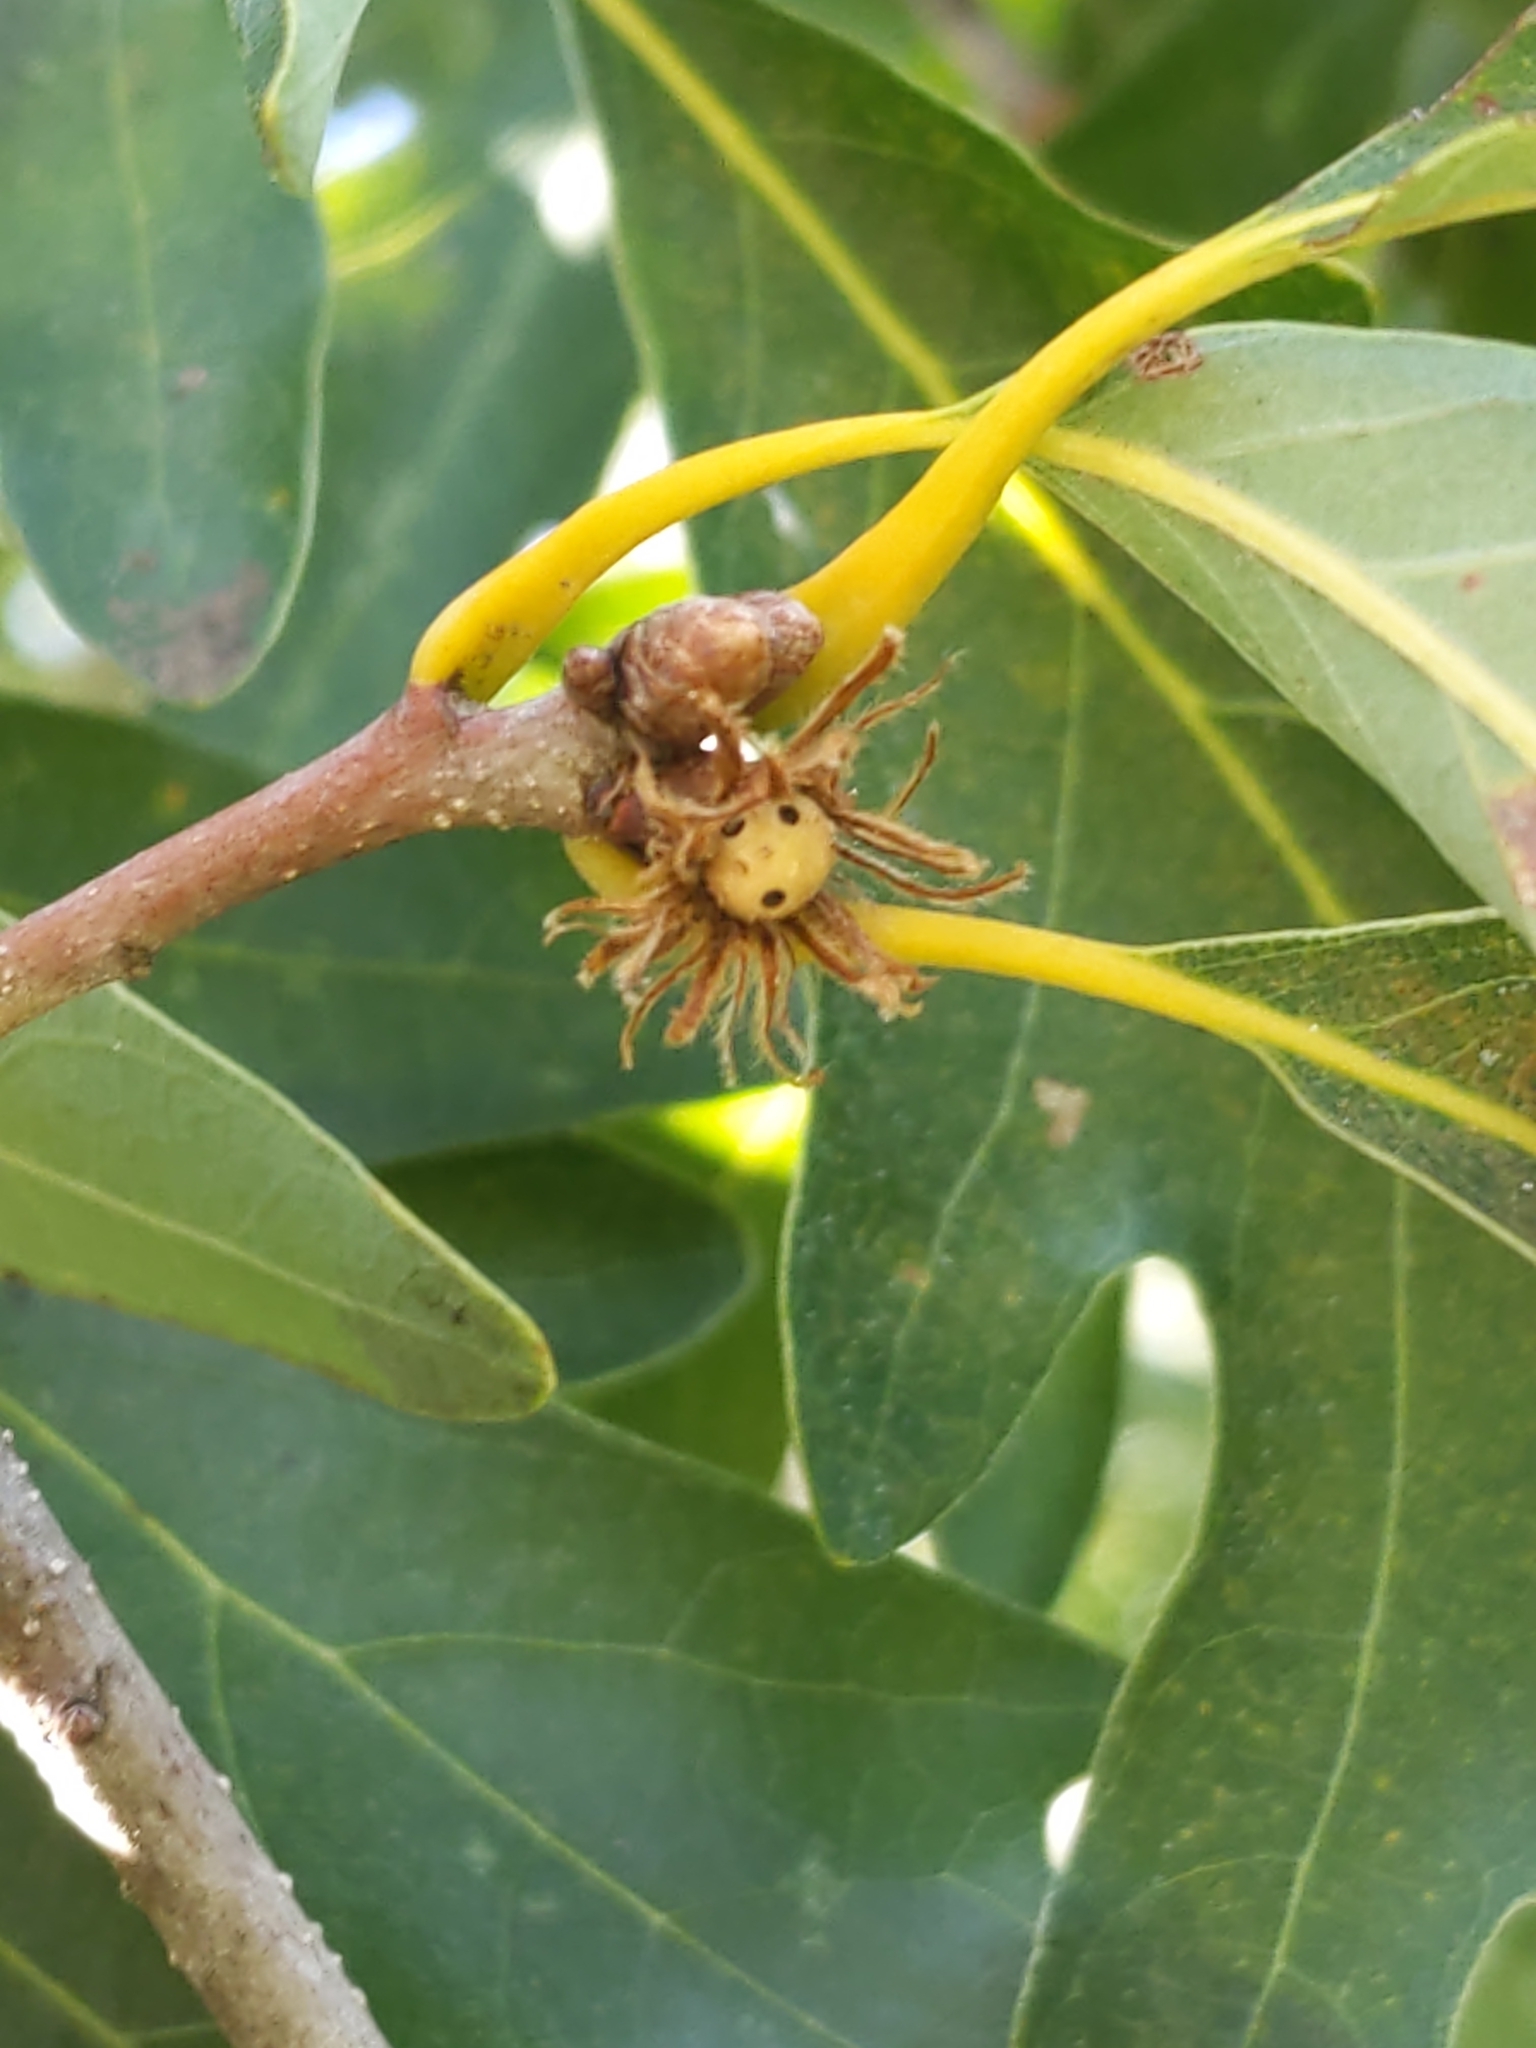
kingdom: Animalia
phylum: Arthropoda
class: Insecta
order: Hymenoptera
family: Cynipidae
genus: Andricus
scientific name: Andricus
